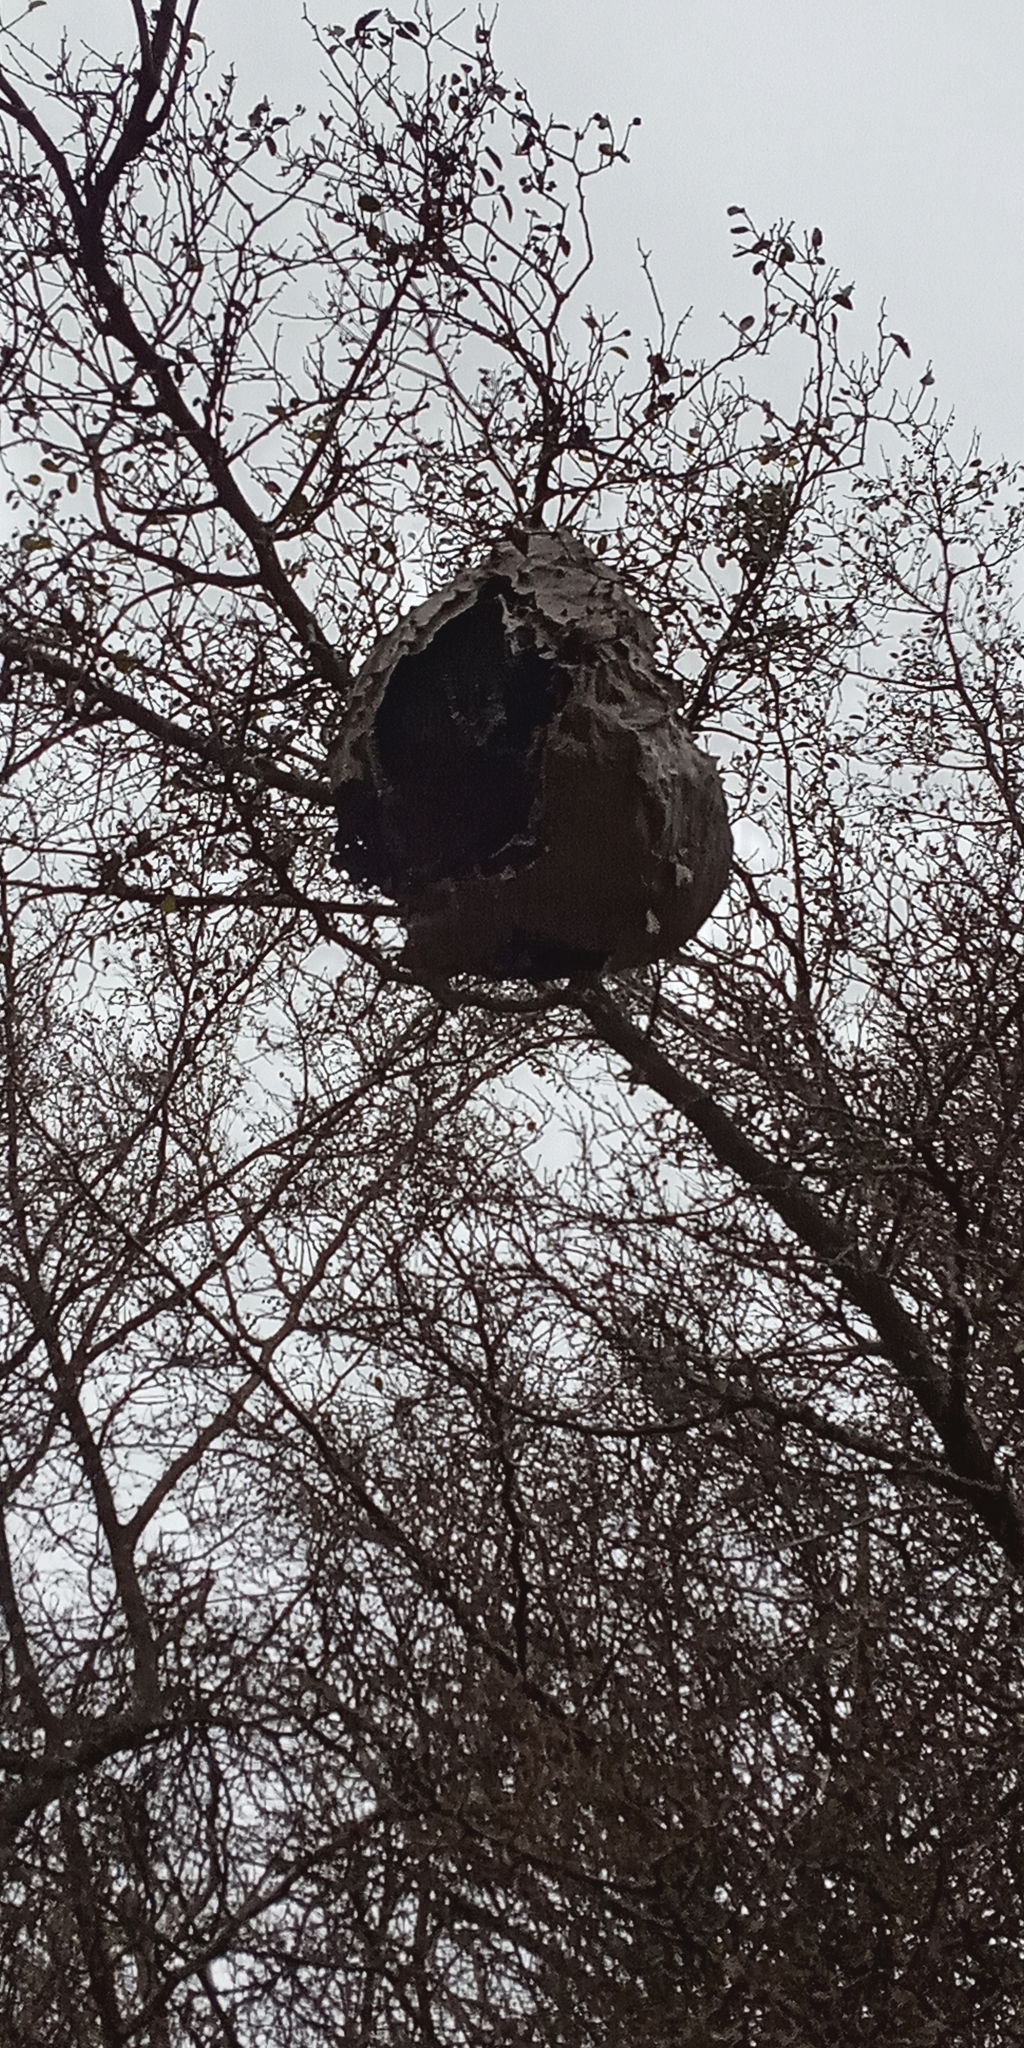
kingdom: Animalia
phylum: Arthropoda
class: Insecta
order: Hymenoptera
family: Eumenidae
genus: Polybia
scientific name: Polybia scutellaris
